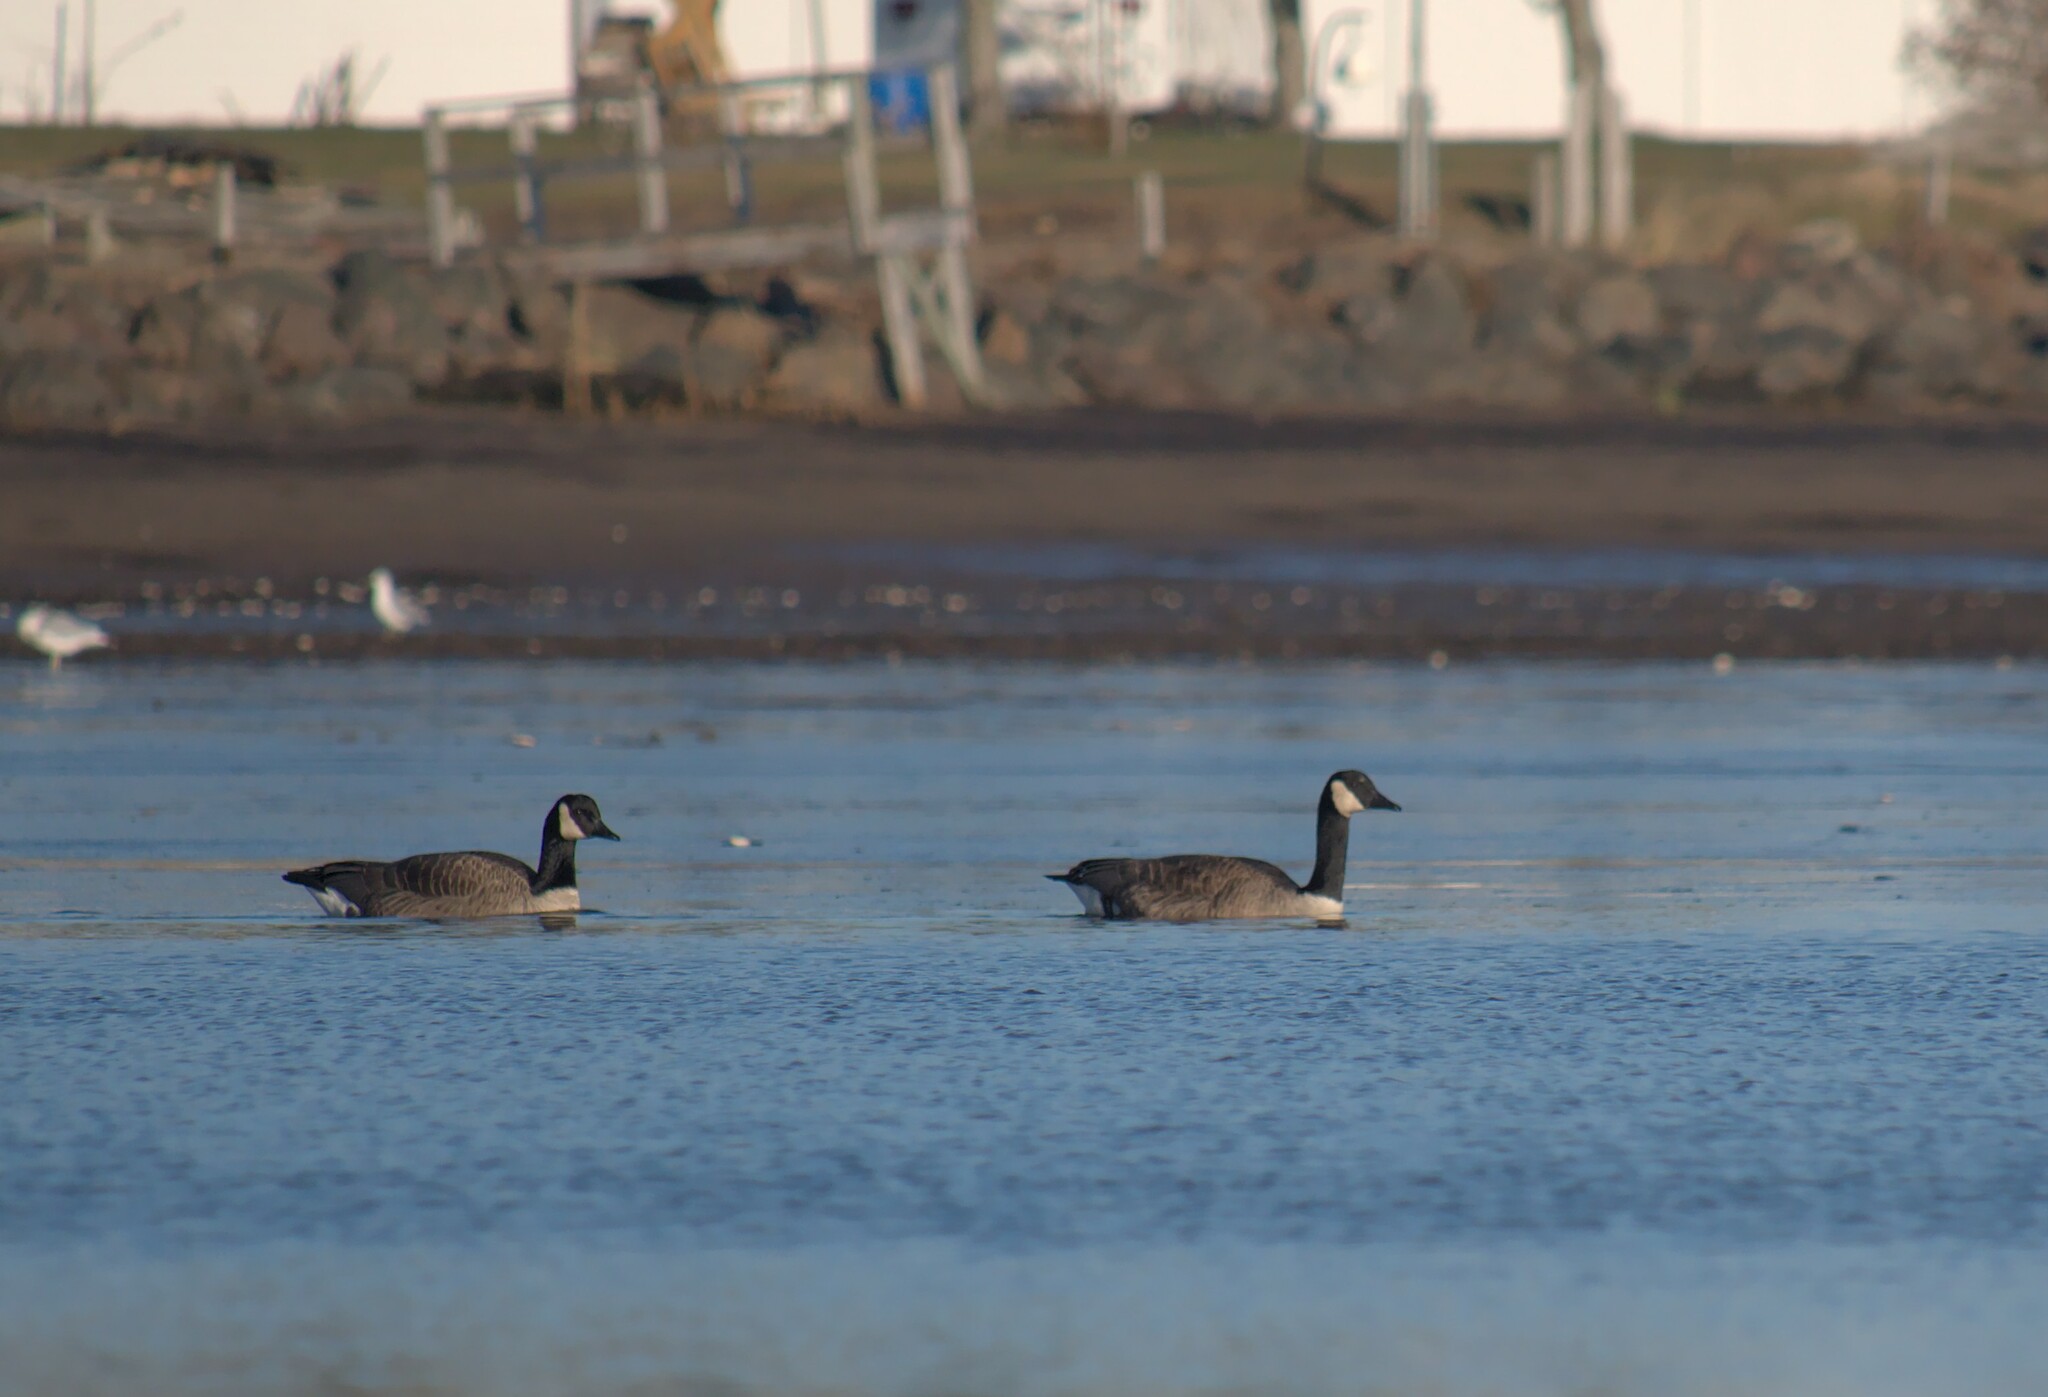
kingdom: Animalia
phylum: Chordata
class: Aves
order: Anseriformes
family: Anatidae
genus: Branta
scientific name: Branta canadensis
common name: Canada goose
